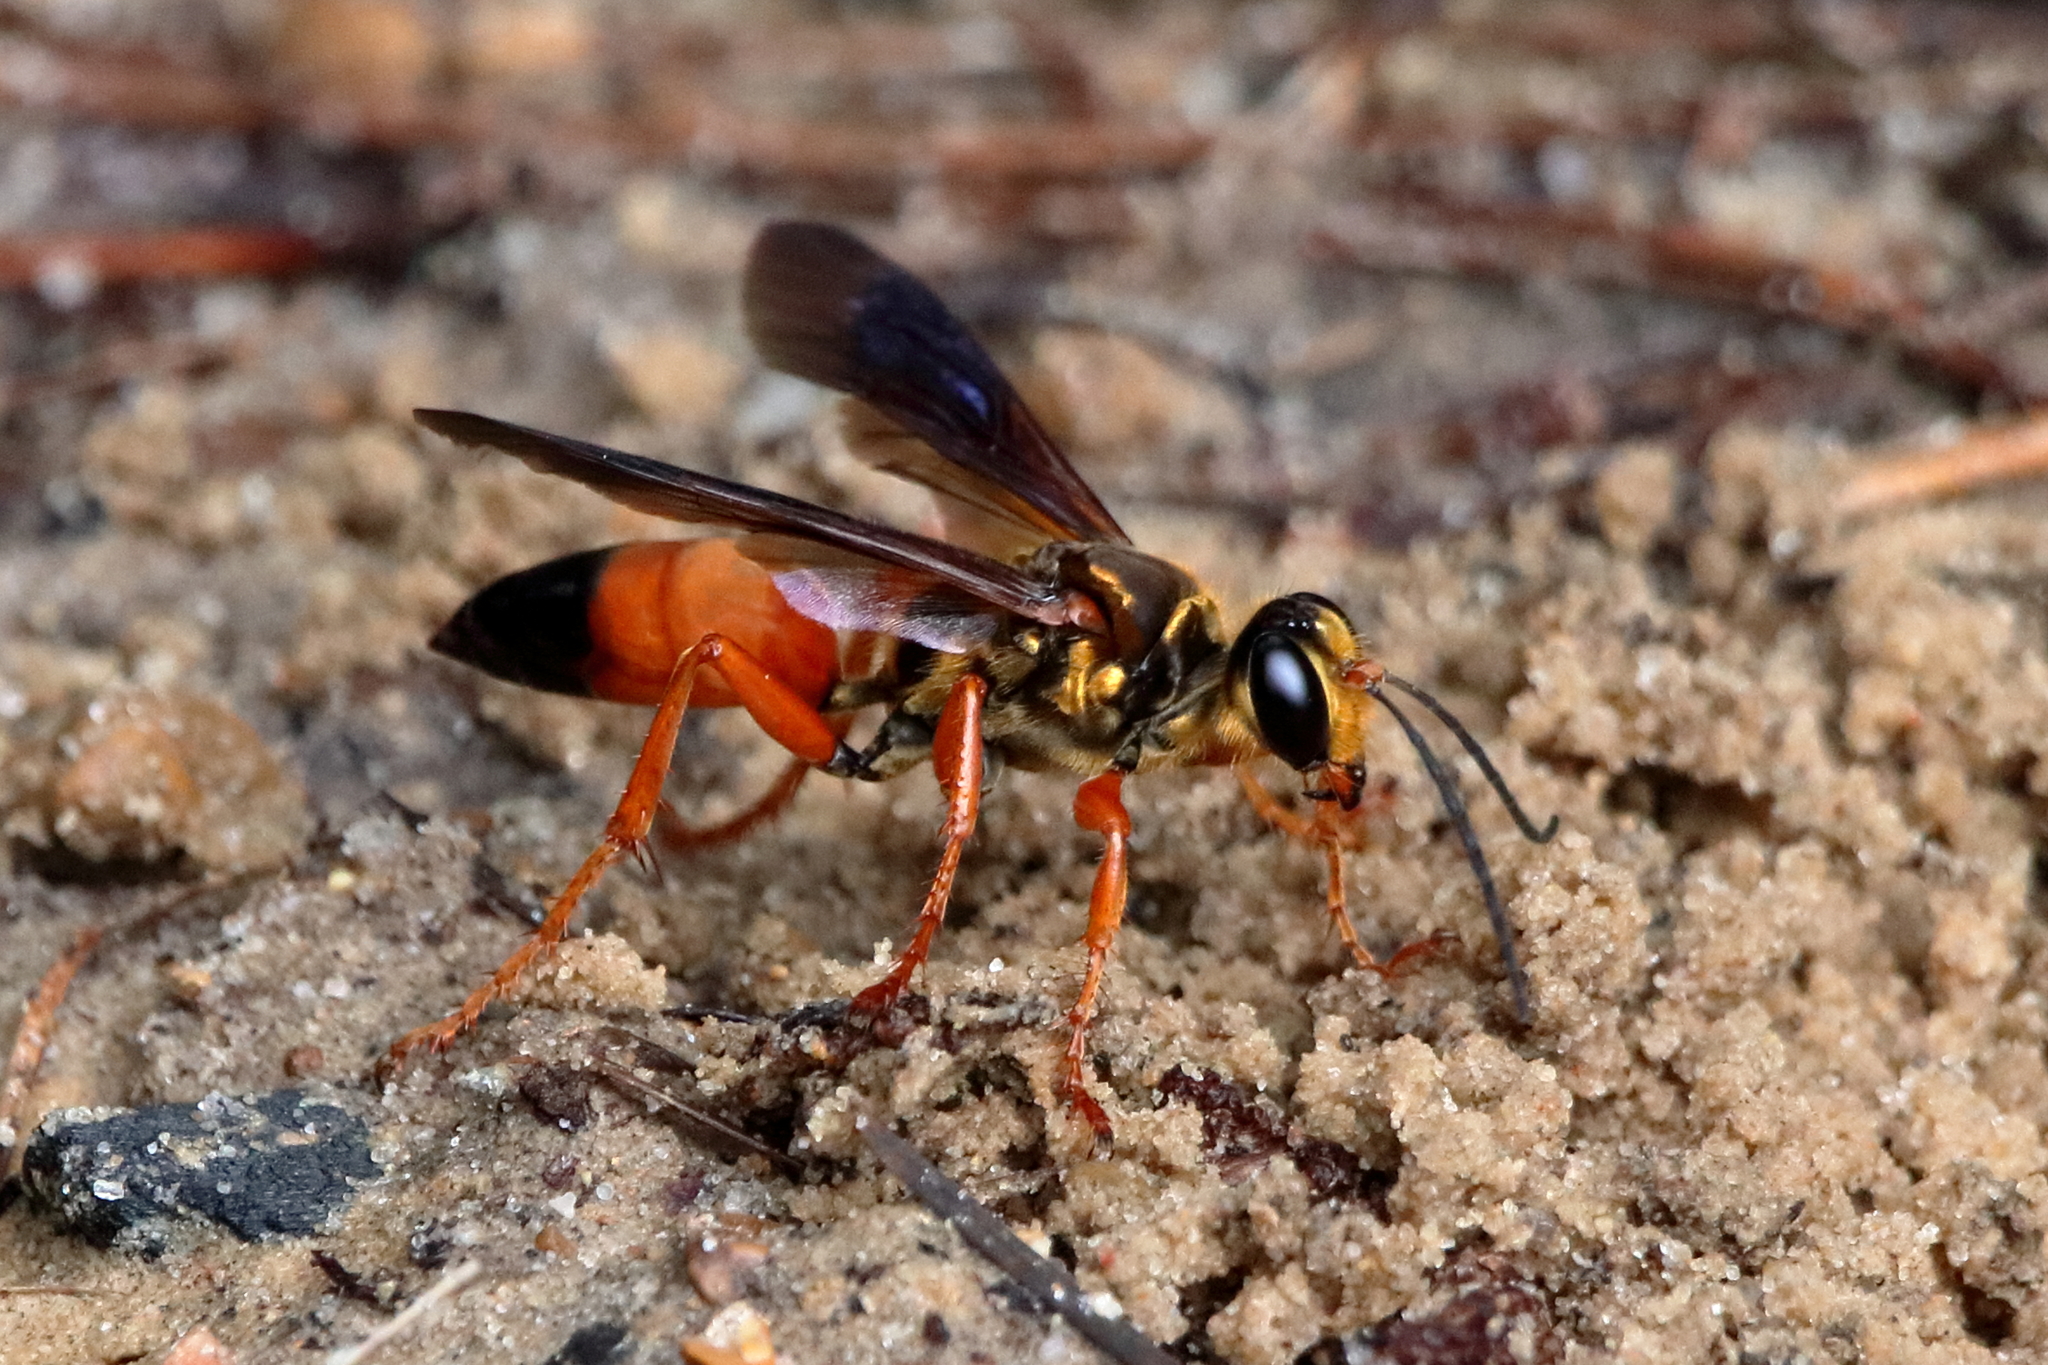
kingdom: Animalia
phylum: Arthropoda
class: Insecta
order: Hymenoptera
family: Sphecidae
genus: Sphex
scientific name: Sphex ichneumoneus
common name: Great golden digger wasp
